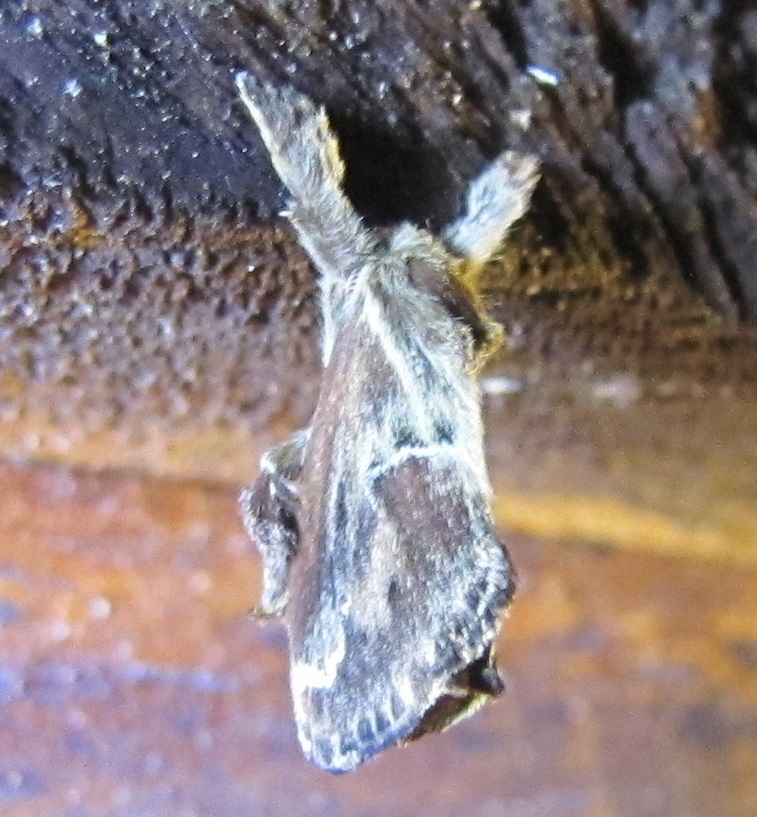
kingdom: Animalia
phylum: Arthropoda
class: Insecta
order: Lepidoptera
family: Limacodidae
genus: Adoneta
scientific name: Adoneta spinuloides
